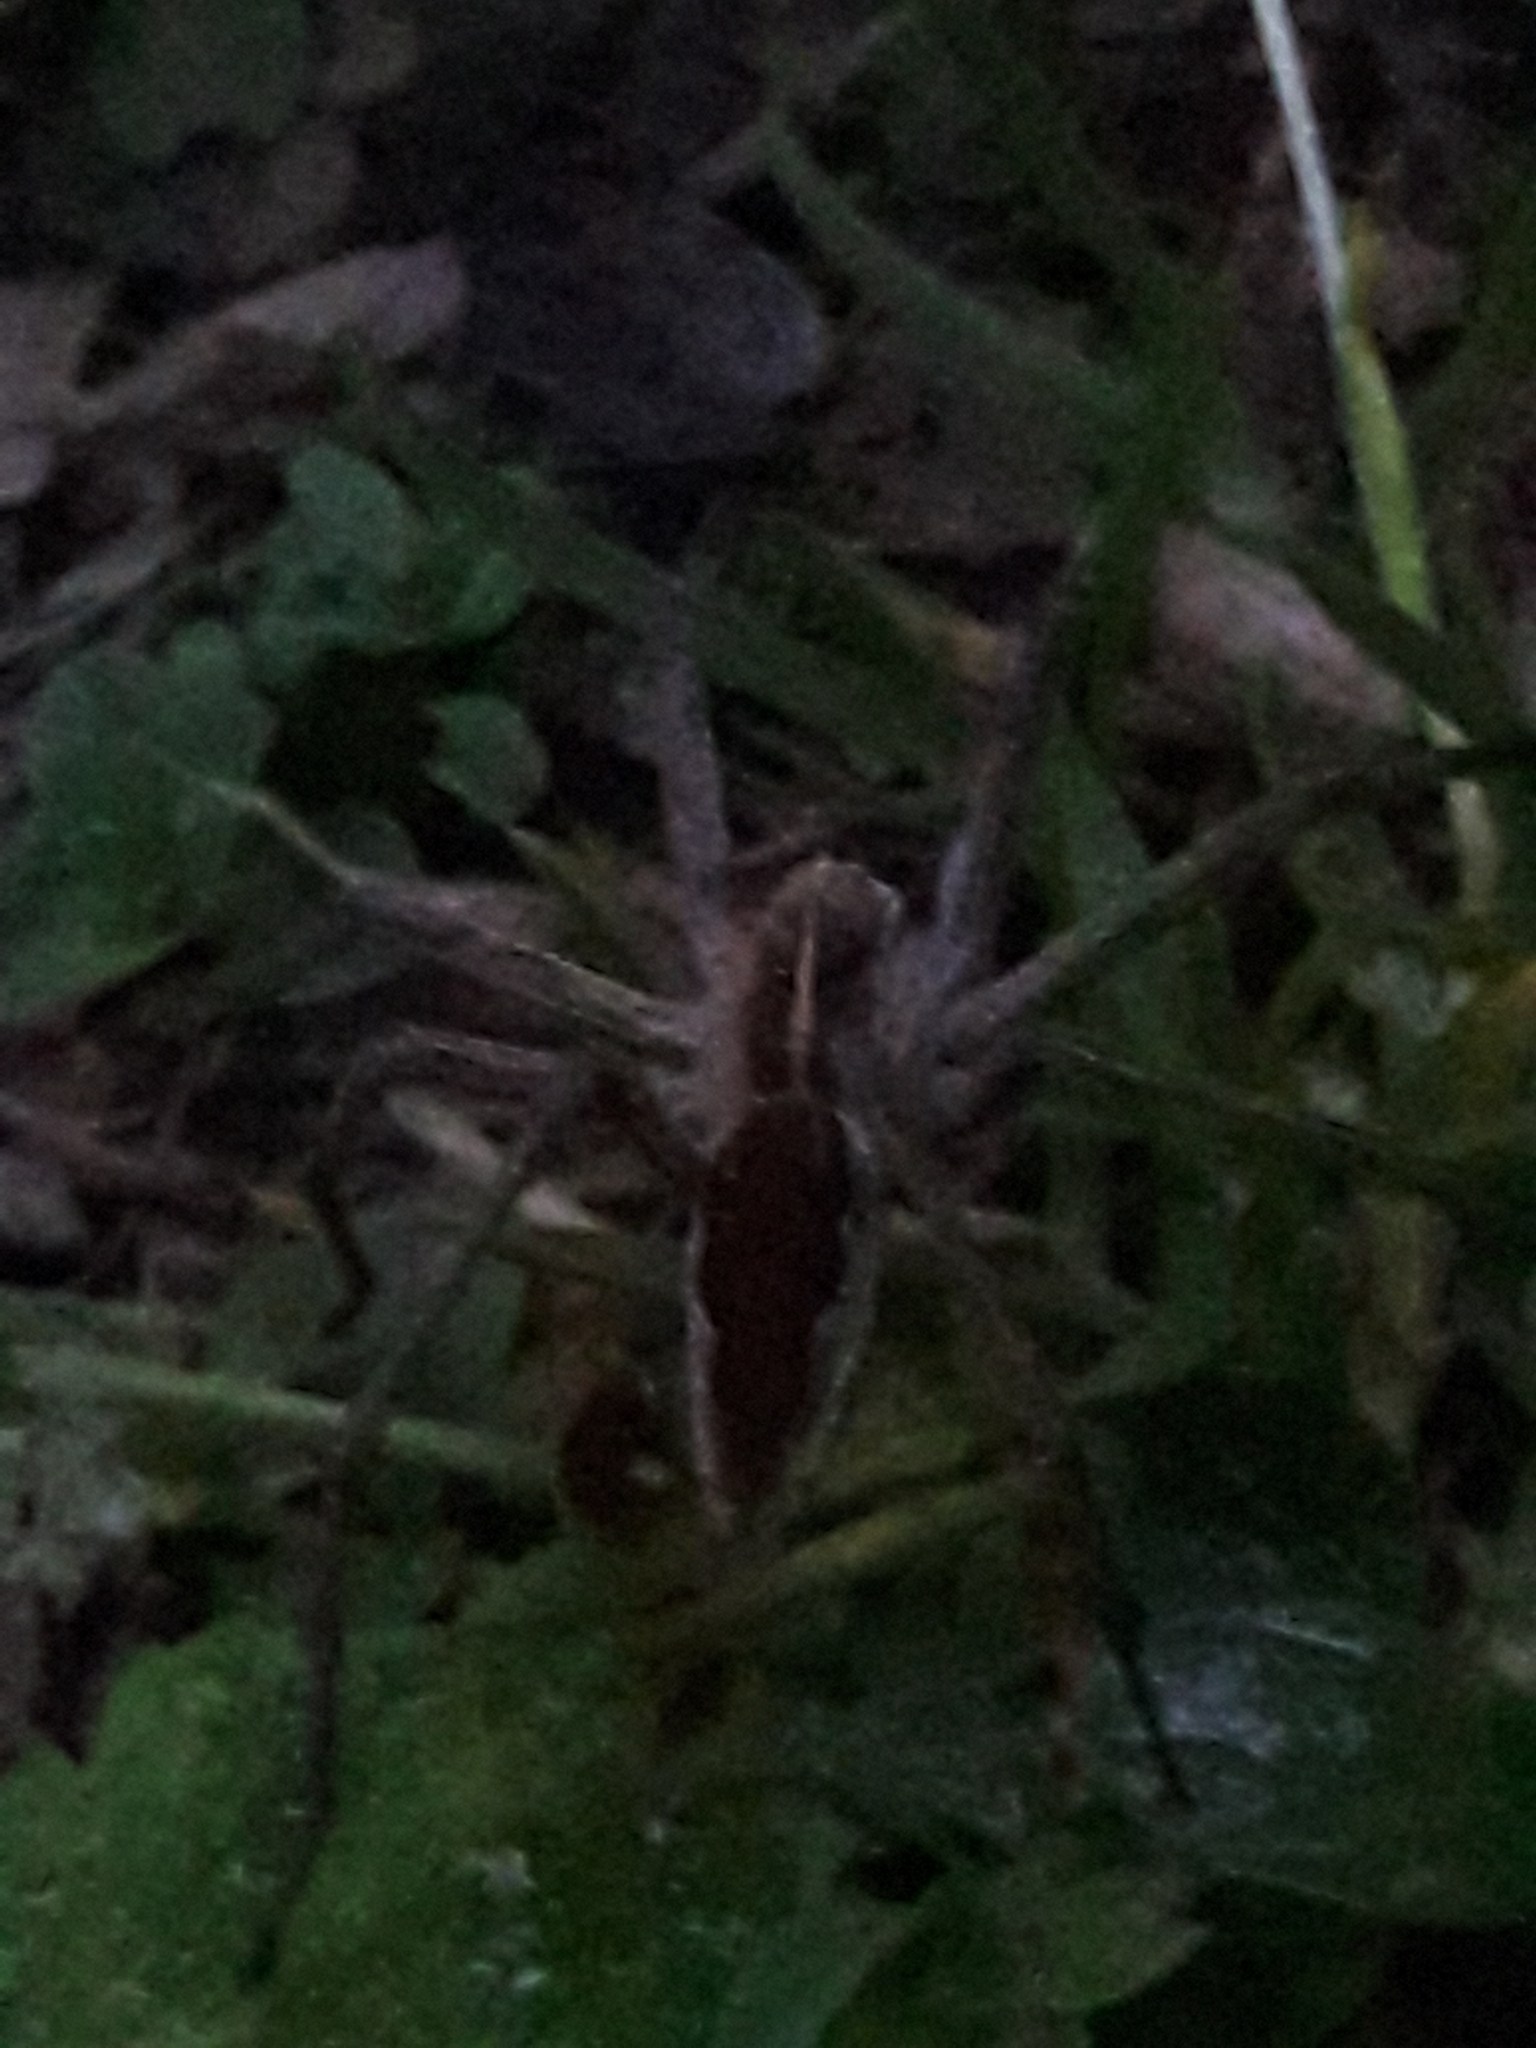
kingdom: Animalia
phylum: Arthropoda
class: Arachnida
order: Araneae
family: Pisauridae
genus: Pisaura
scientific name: Pisaura mirabilis
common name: Tent spider
